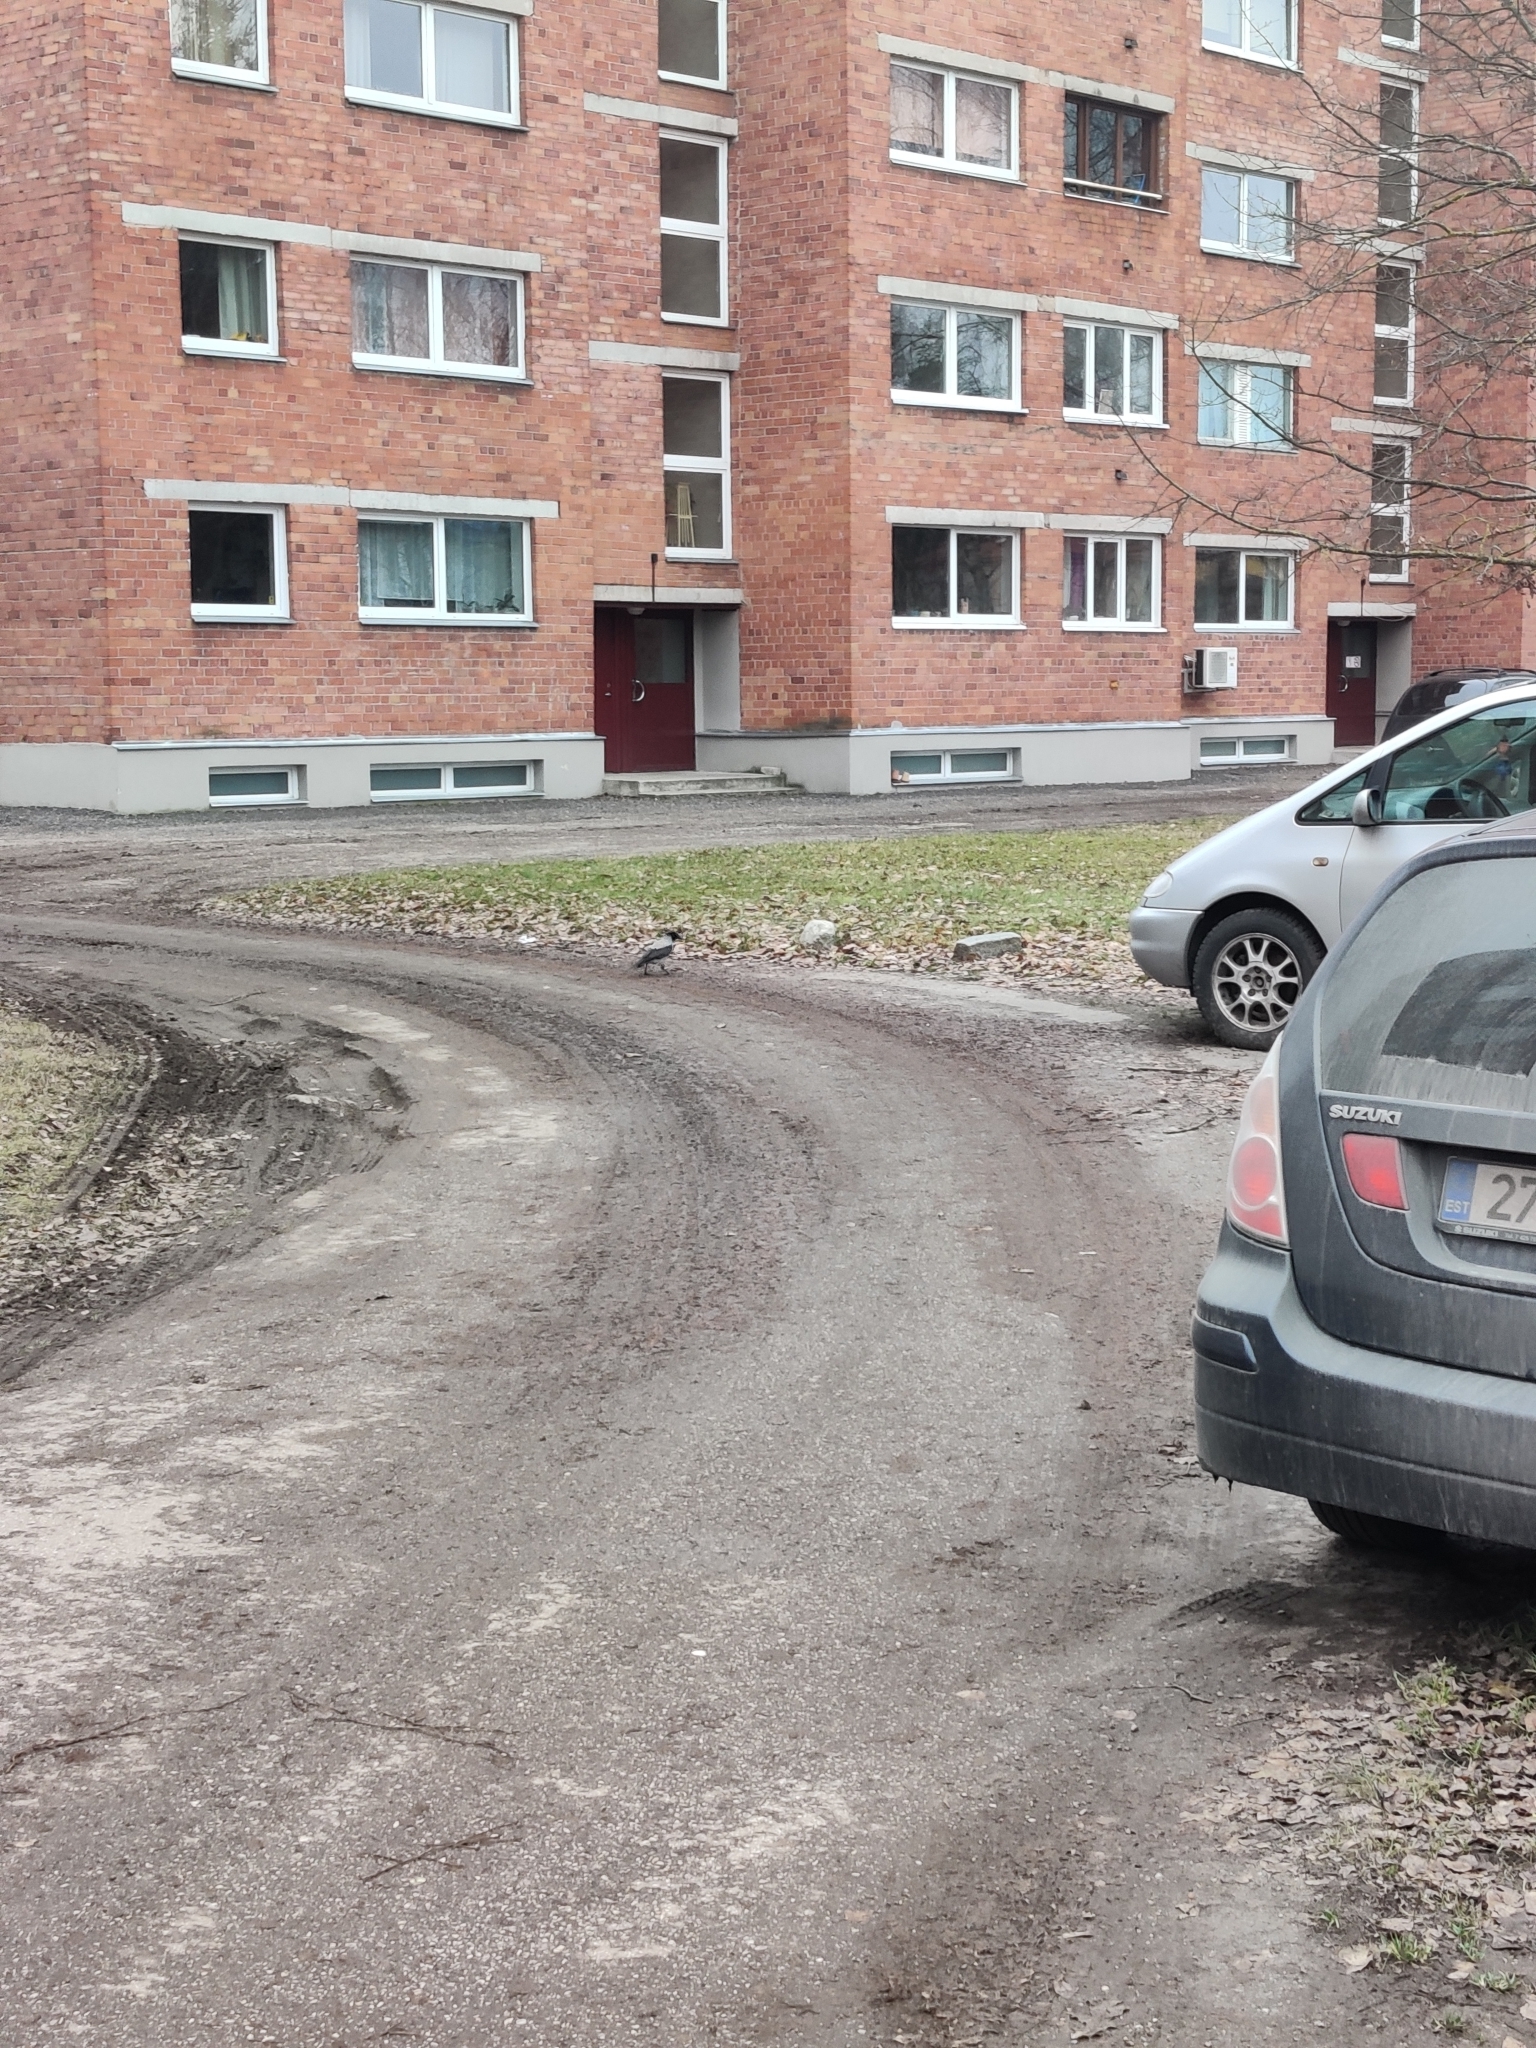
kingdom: Animalia
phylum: Chordata
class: Aves
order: Passeriformes
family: Corvidae
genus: Corvus
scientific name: Corvus cornix
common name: Hooded crow
